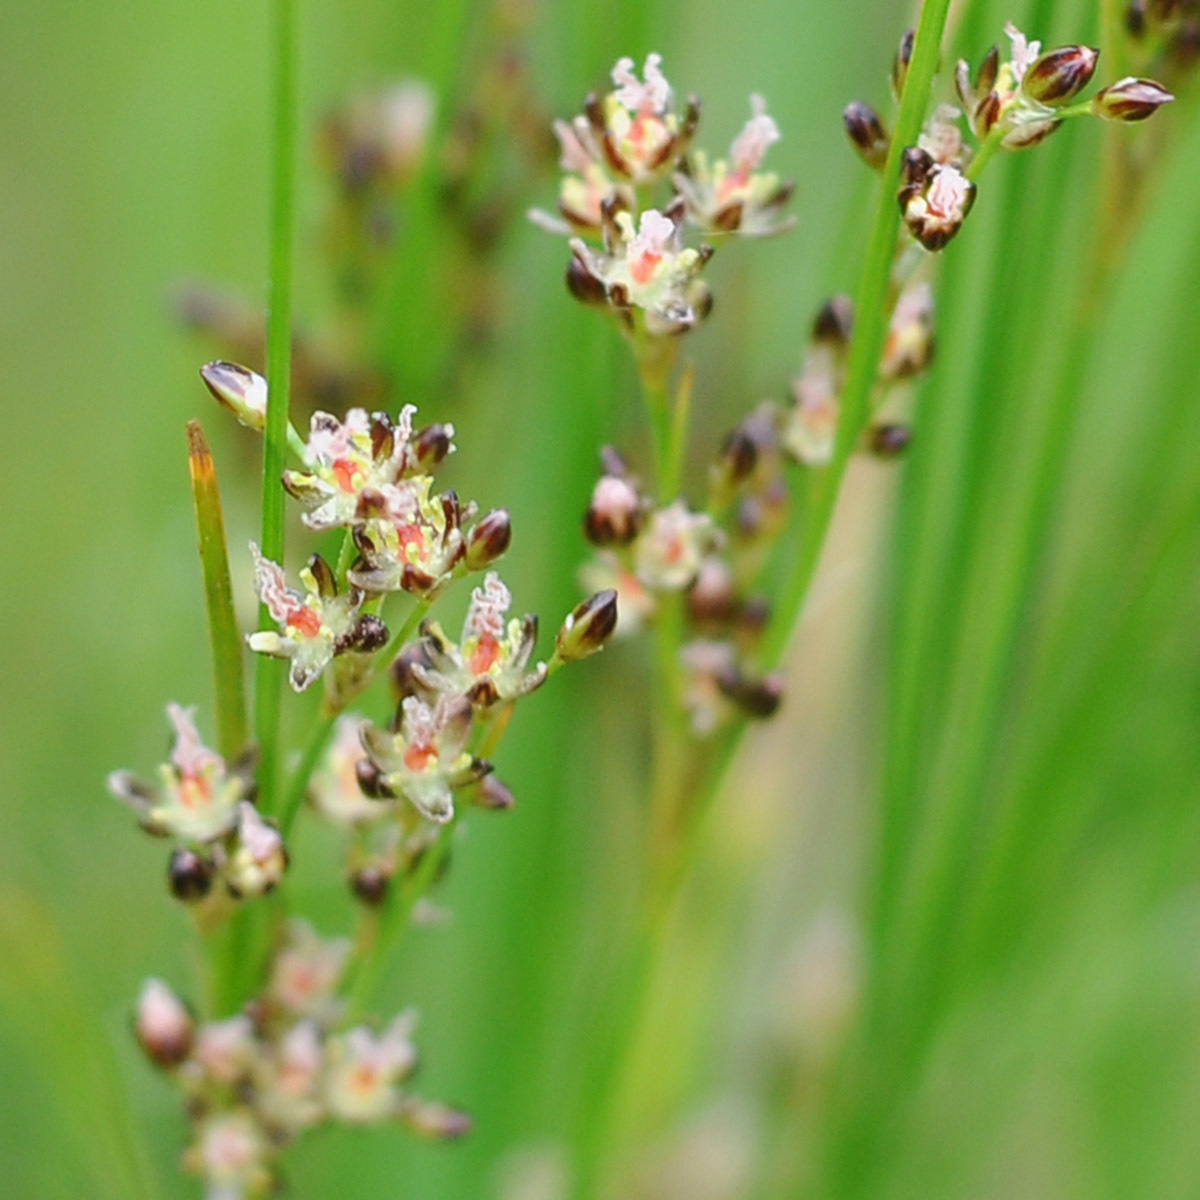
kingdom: Plantae
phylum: Tracheophyta
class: Liliopsida
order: Poales
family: Juncaceae
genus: Juncus
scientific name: Juncus compressus
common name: Round-fruited rush
